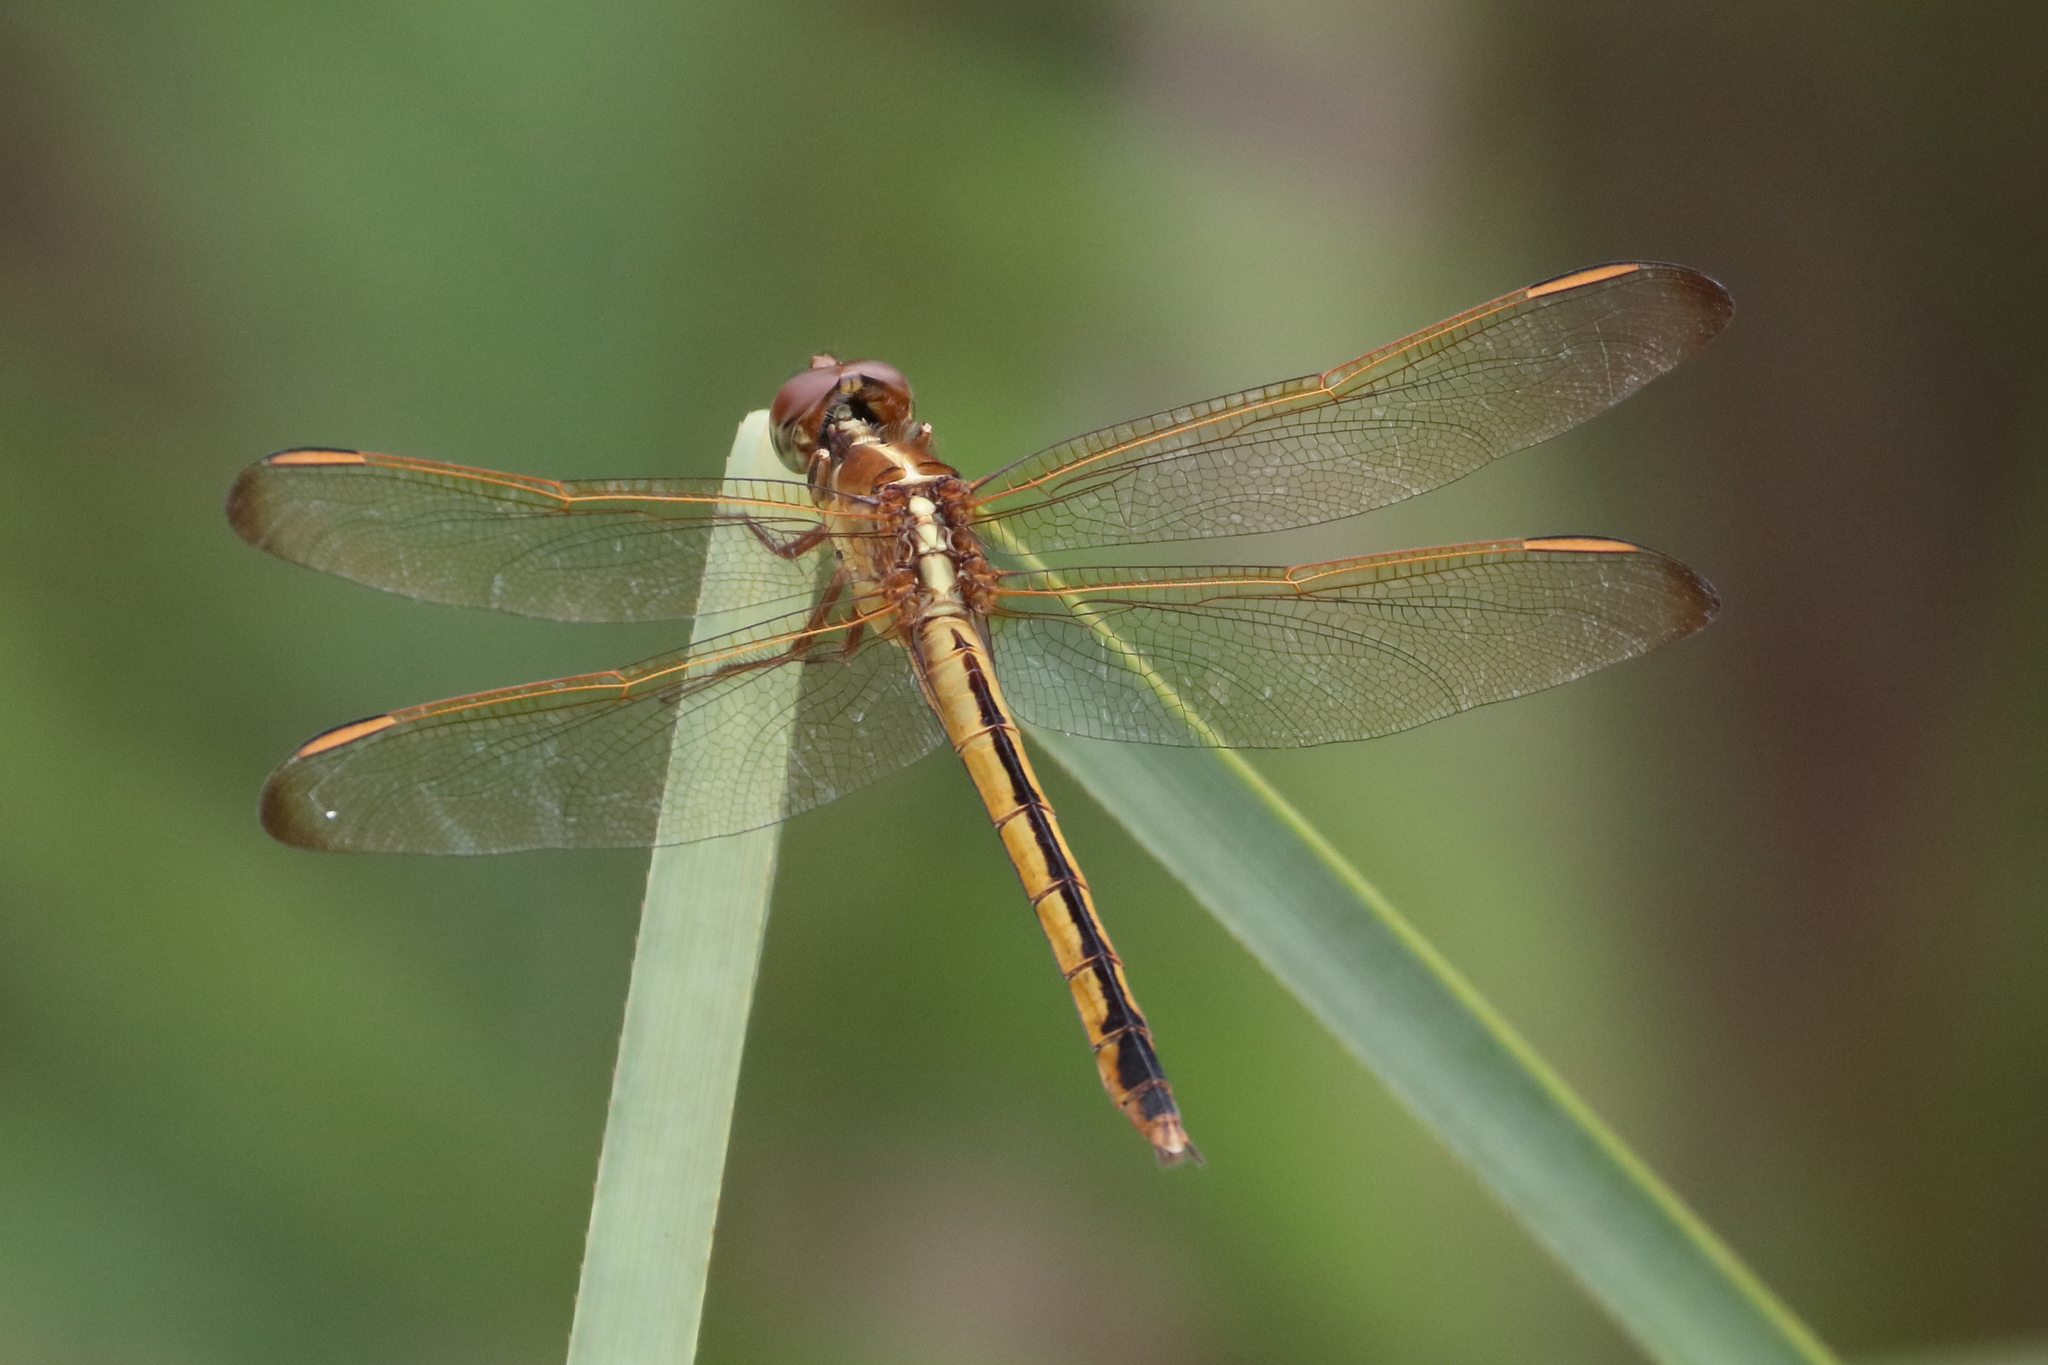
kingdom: Animalia
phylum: Arthropoda
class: Insecta
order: Odonata
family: Libellulidae
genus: Libellula
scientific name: Libellula needhami
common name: Needham's skimmer
